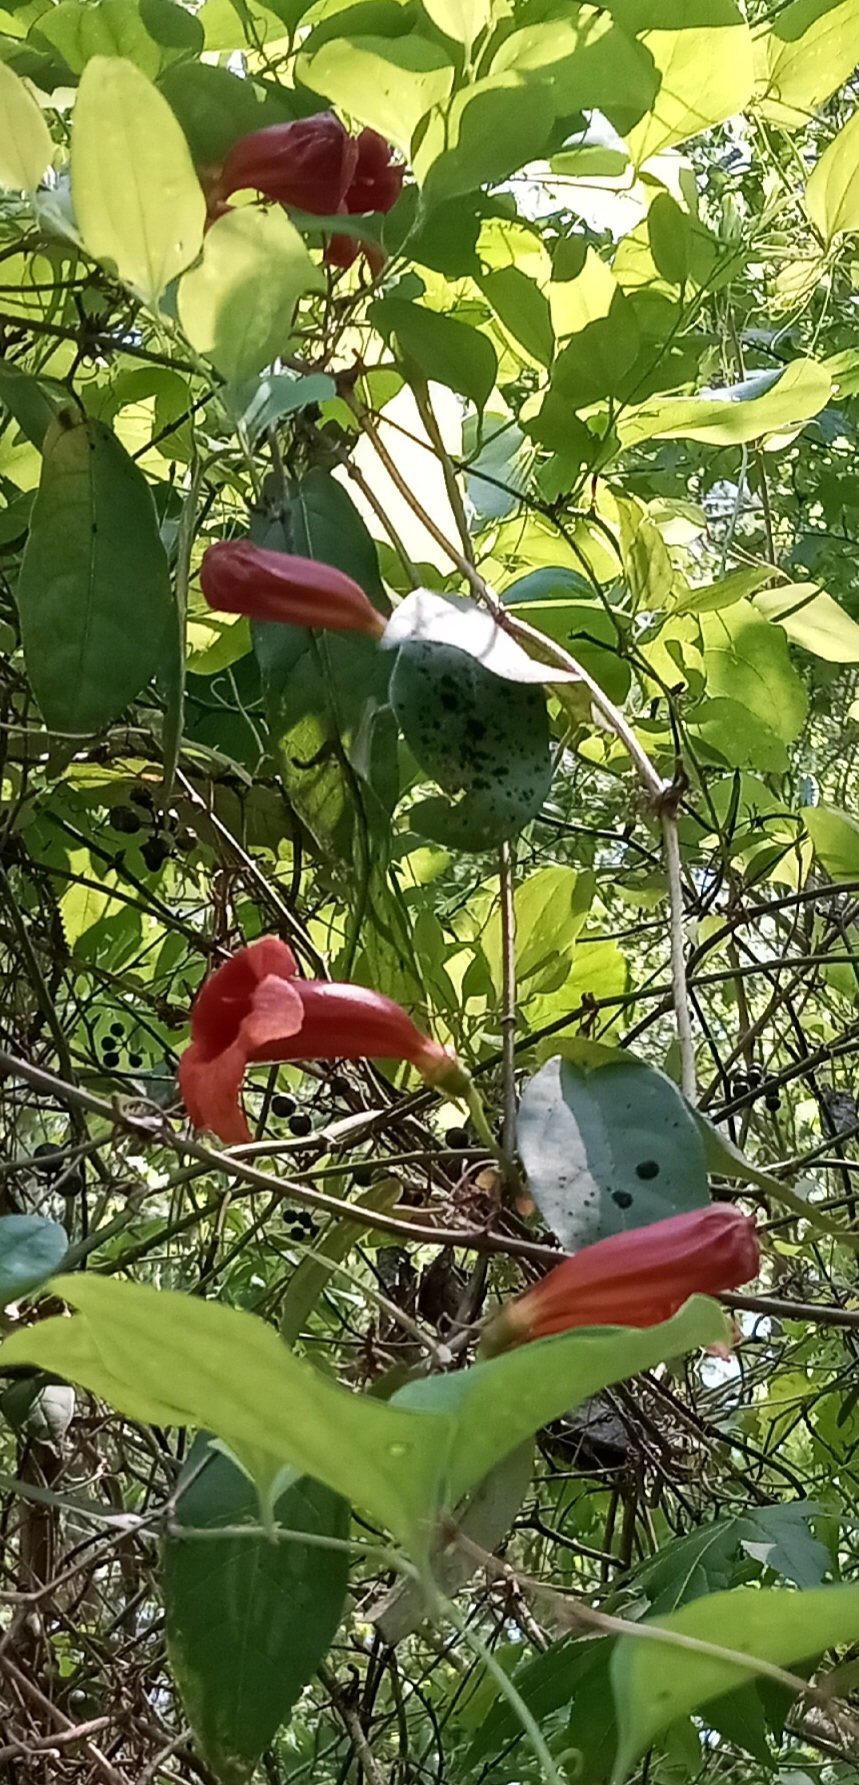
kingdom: Plantae
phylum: Tracheophyta
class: Magnoliopsida
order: Lamiales
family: Bignoniaceae
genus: Bignonia
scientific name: Bignonia capreolata
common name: Crossvine
